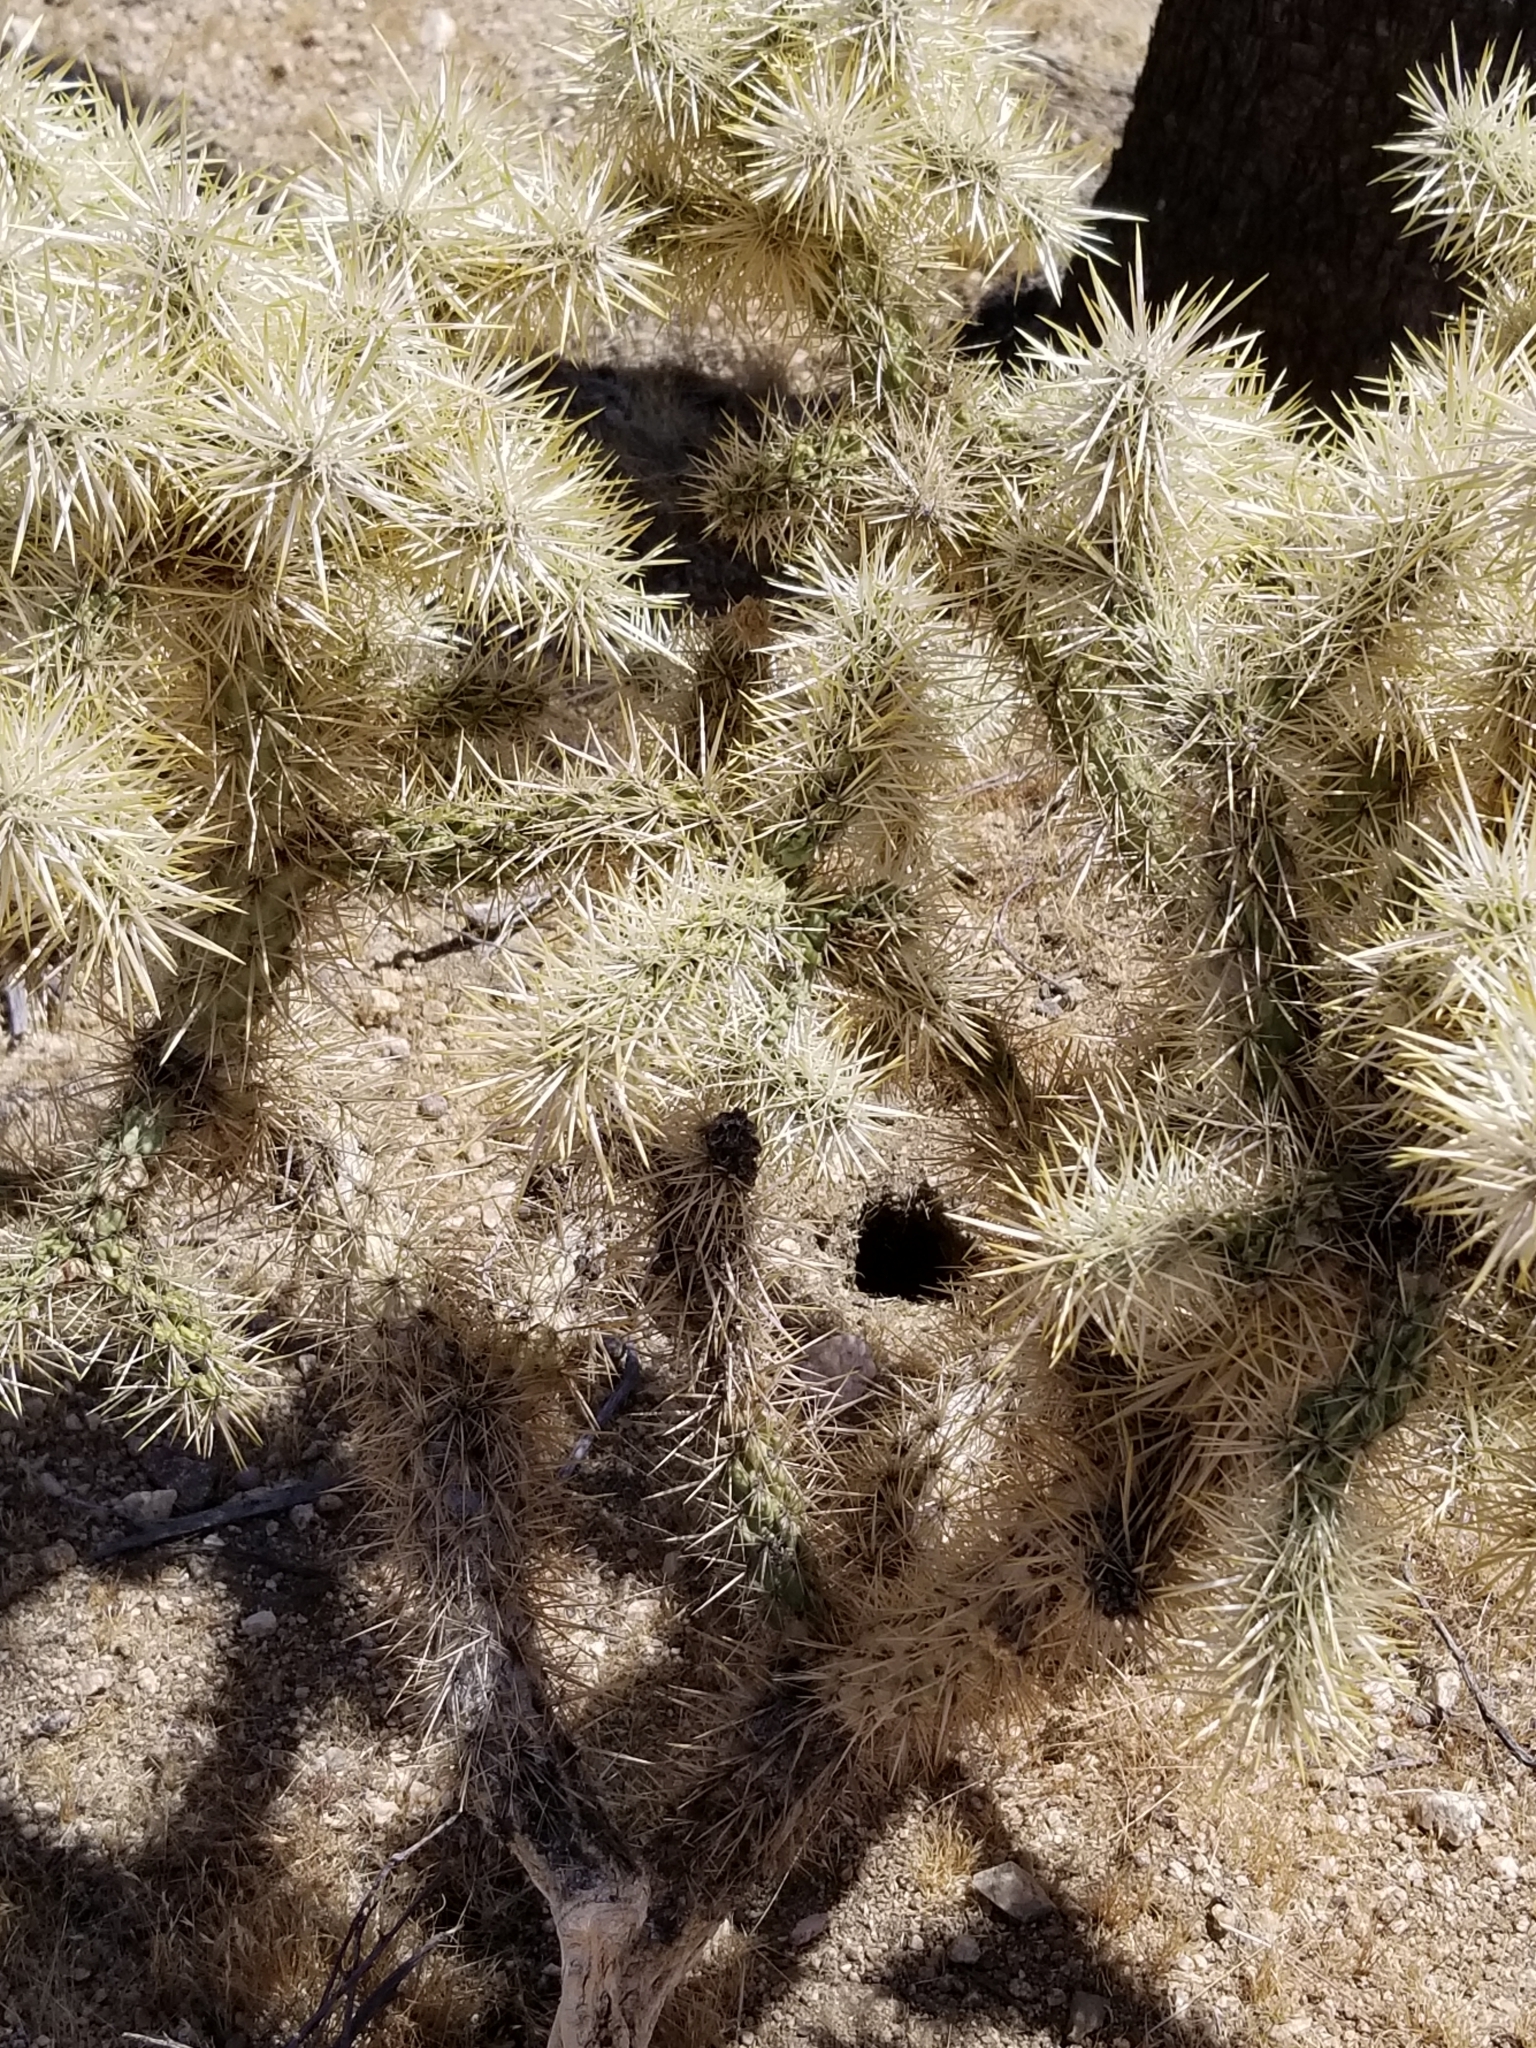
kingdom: Plantae
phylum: Tracheophyta
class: Magnoliopsida
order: Caryophyllales
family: Cactaceae
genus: Cylindropuntia
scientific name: Cylindropuntia echinocarpa
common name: Ground cholla
